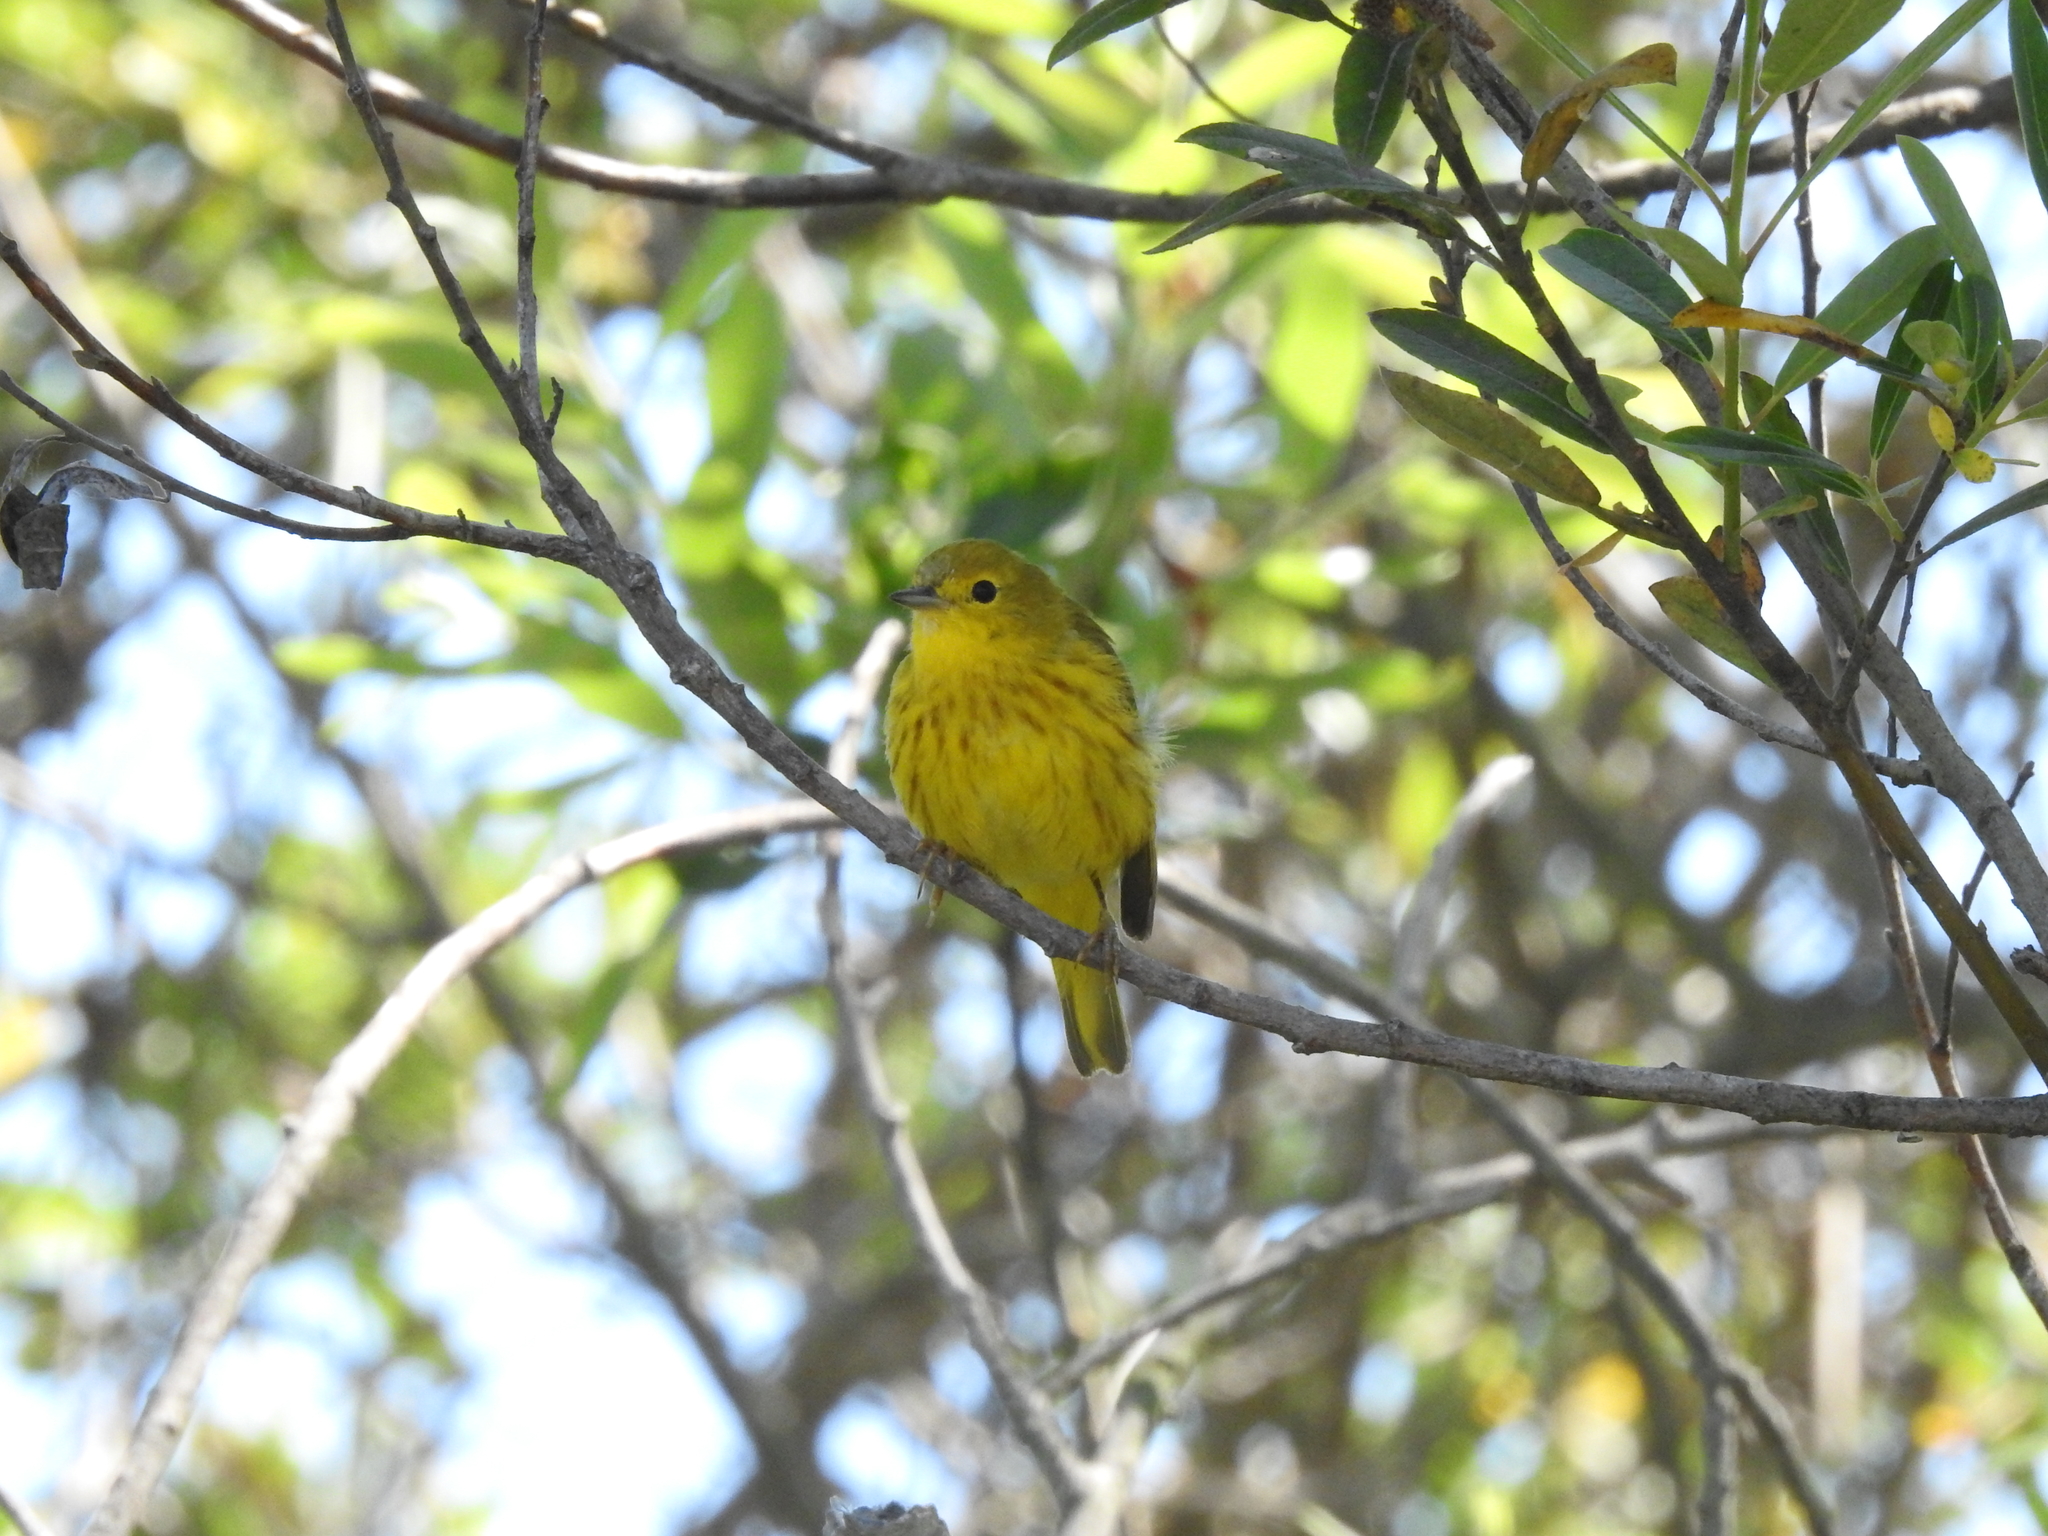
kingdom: Animalia
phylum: Chordata
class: Aves
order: Passeriformes
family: Parulidae
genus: Setophaga
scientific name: Setophaga petechia
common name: Yellow warbler
